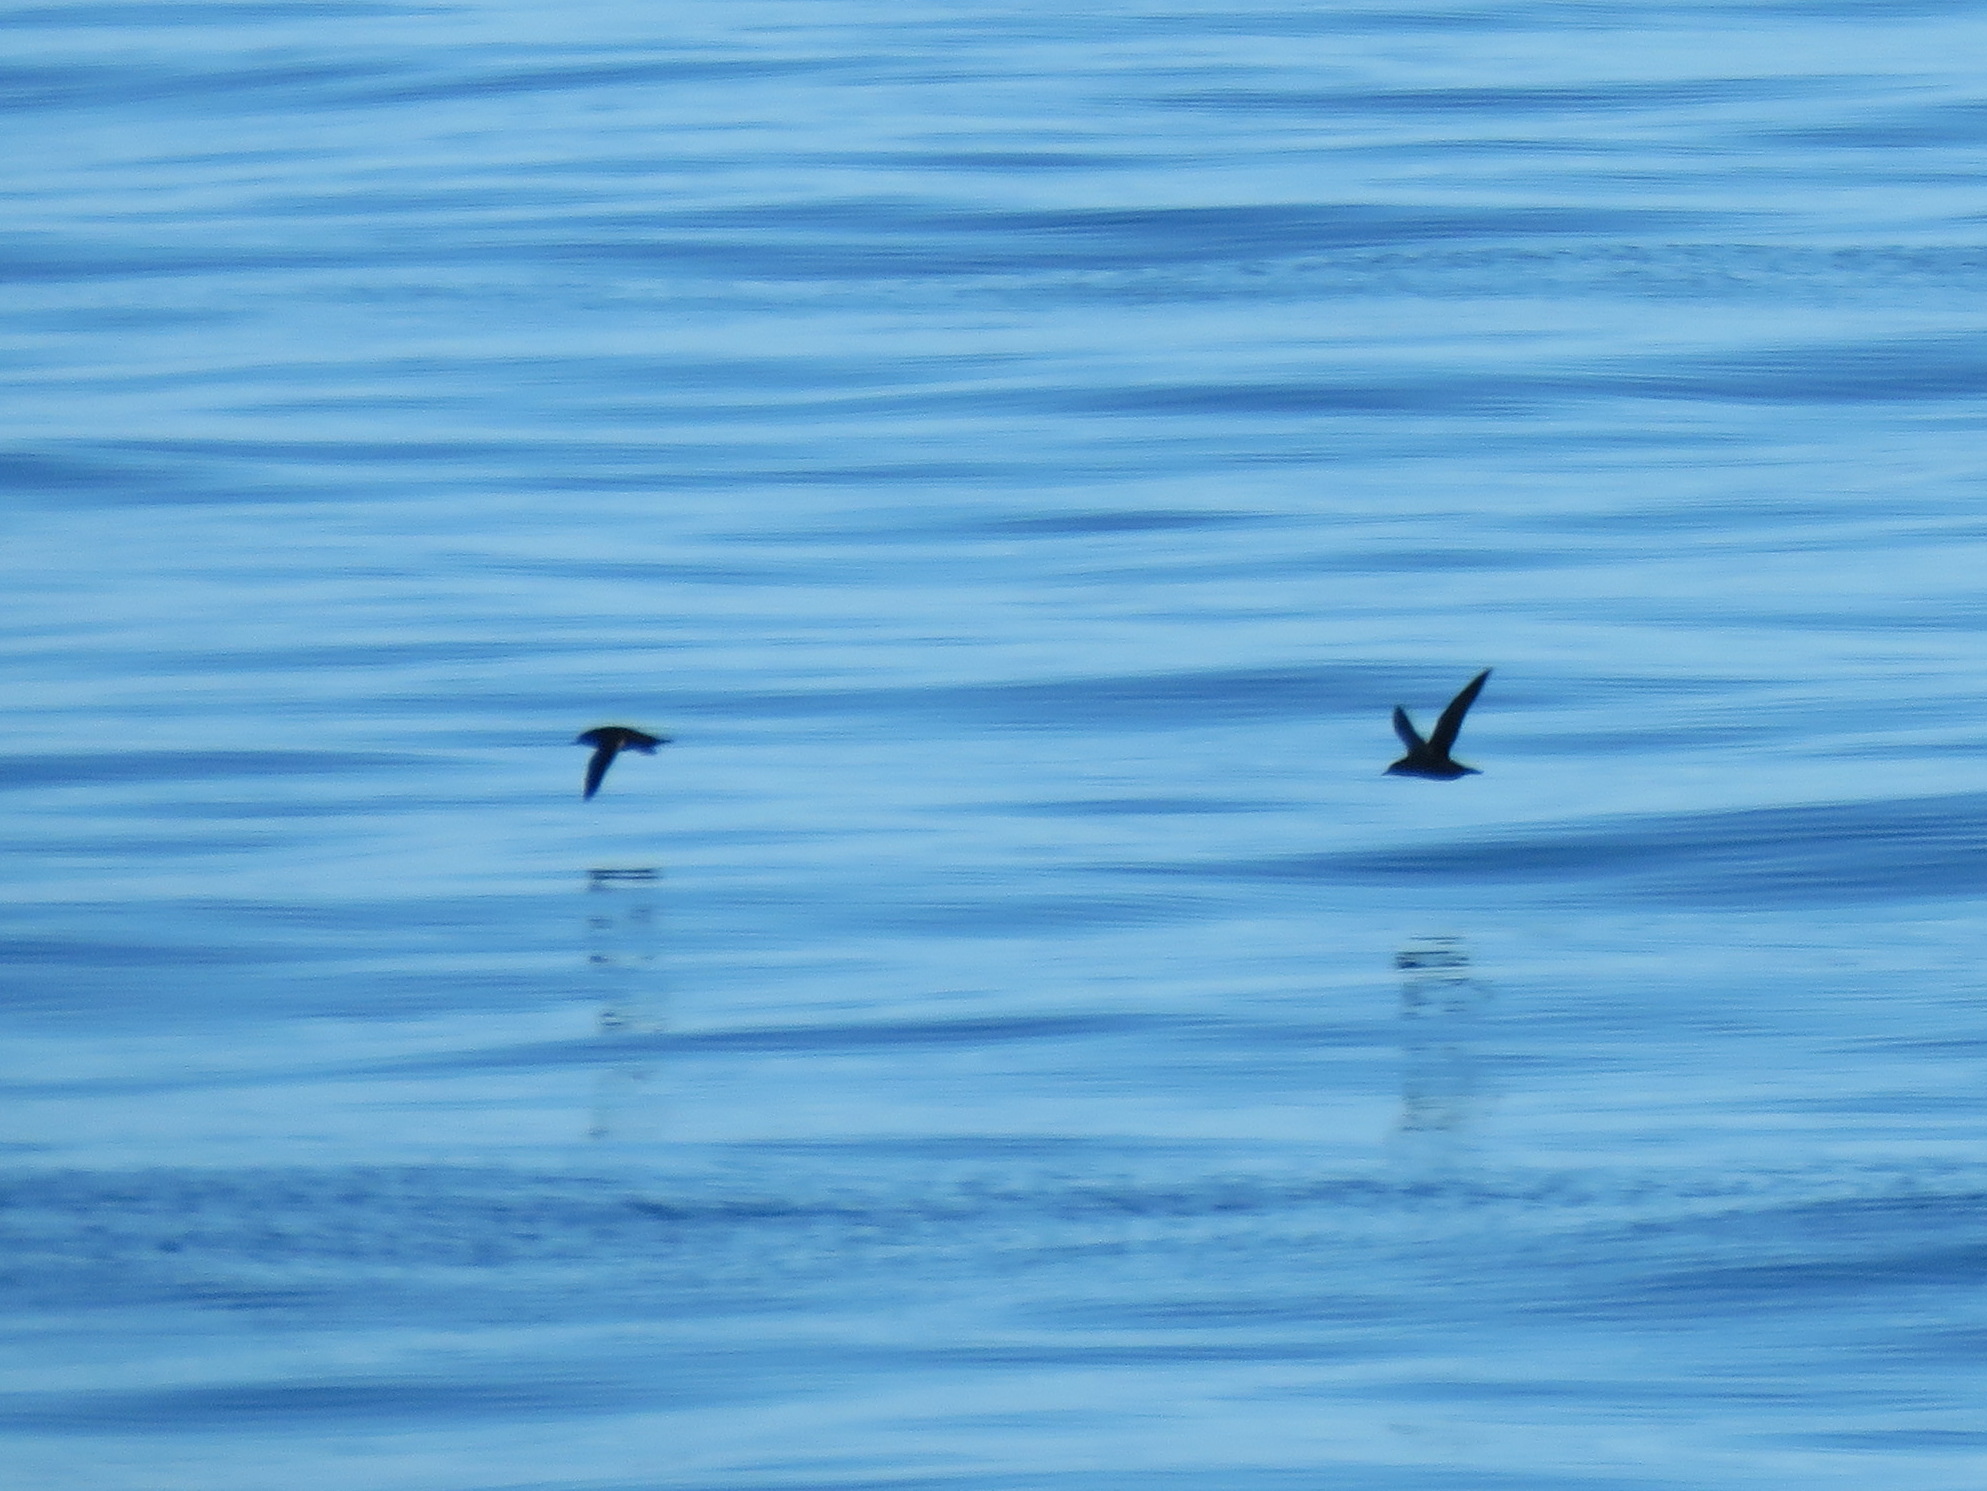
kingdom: Animalia
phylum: Chordata
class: Aves
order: Procellariiformes
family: Procellariidae
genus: Puffinus
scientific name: Puffinus tenuirostris
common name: Short-tailed shearwater
